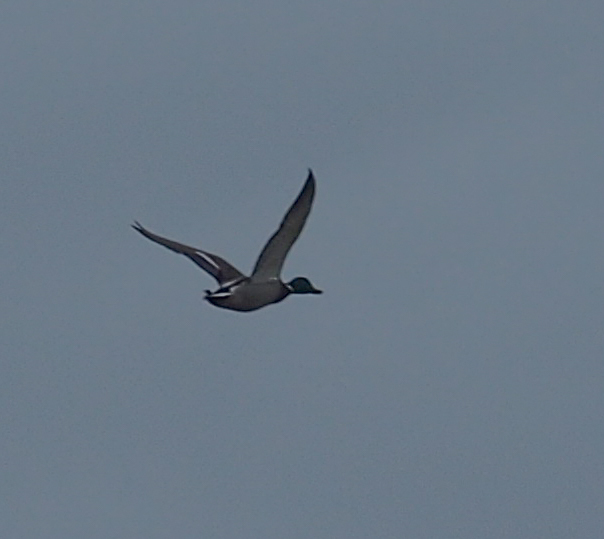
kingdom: Animalia
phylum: Chordata
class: Aves
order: Anseriformes
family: Anatidae
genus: Anas
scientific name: Anas platyrhynchos
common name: Mallard
